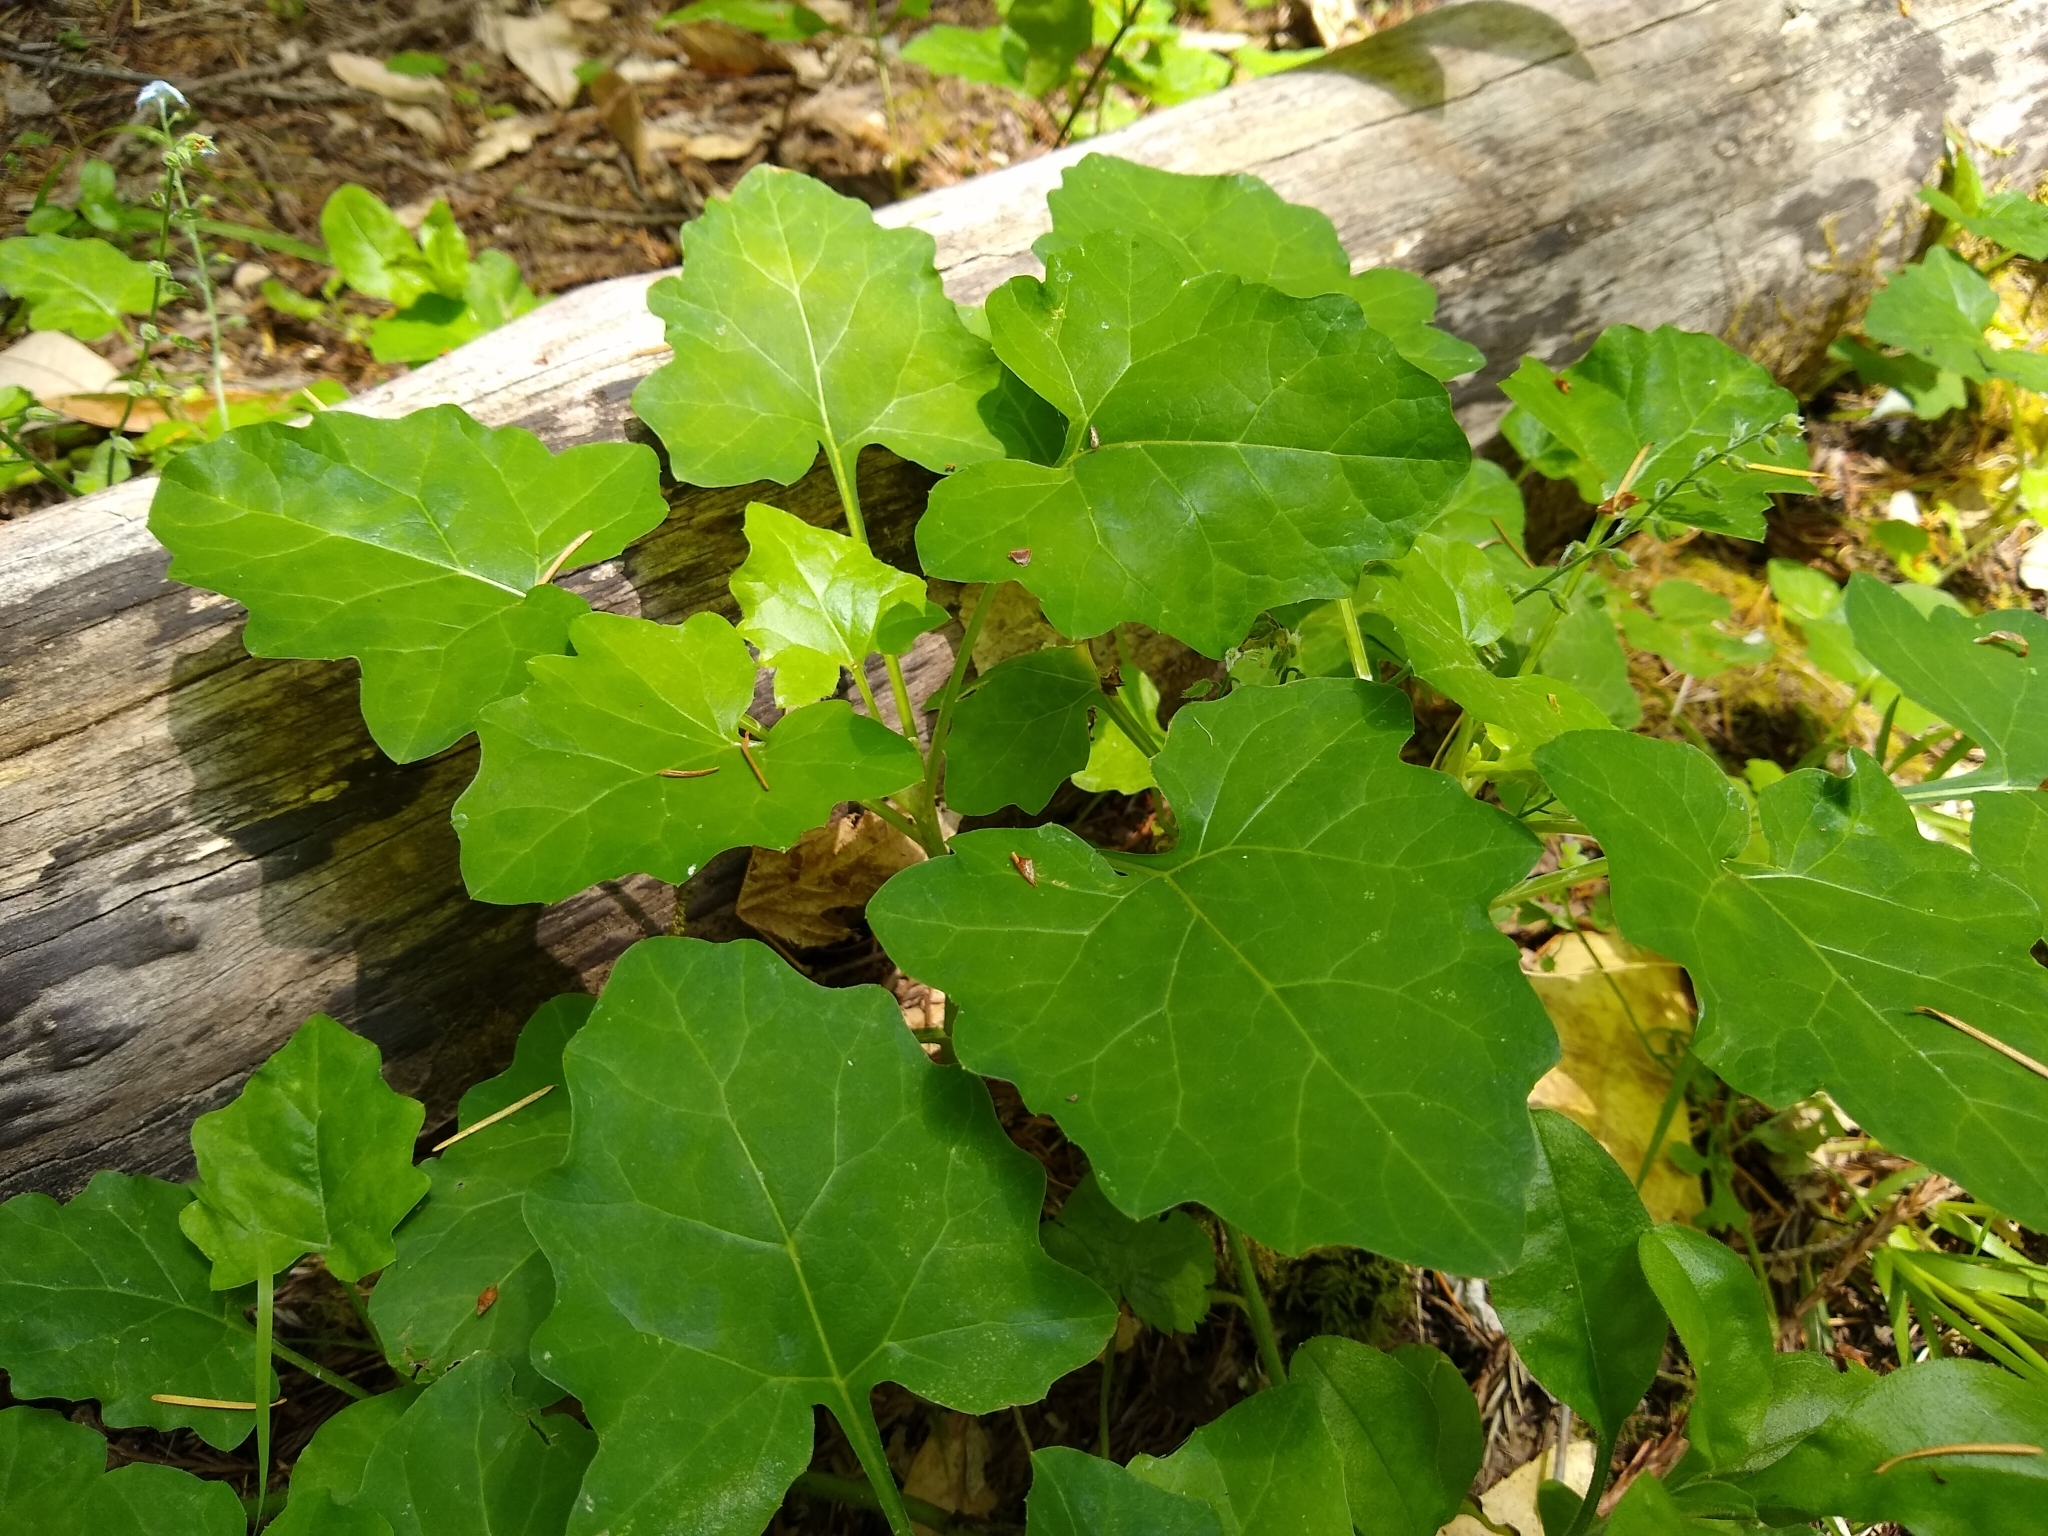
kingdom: Plantae
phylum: Tracheophyta
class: Magnoliopsida
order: Asterales
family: Asteraceae
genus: Adenocaulon
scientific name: Adenocaulon bicolor
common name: Trailplant
